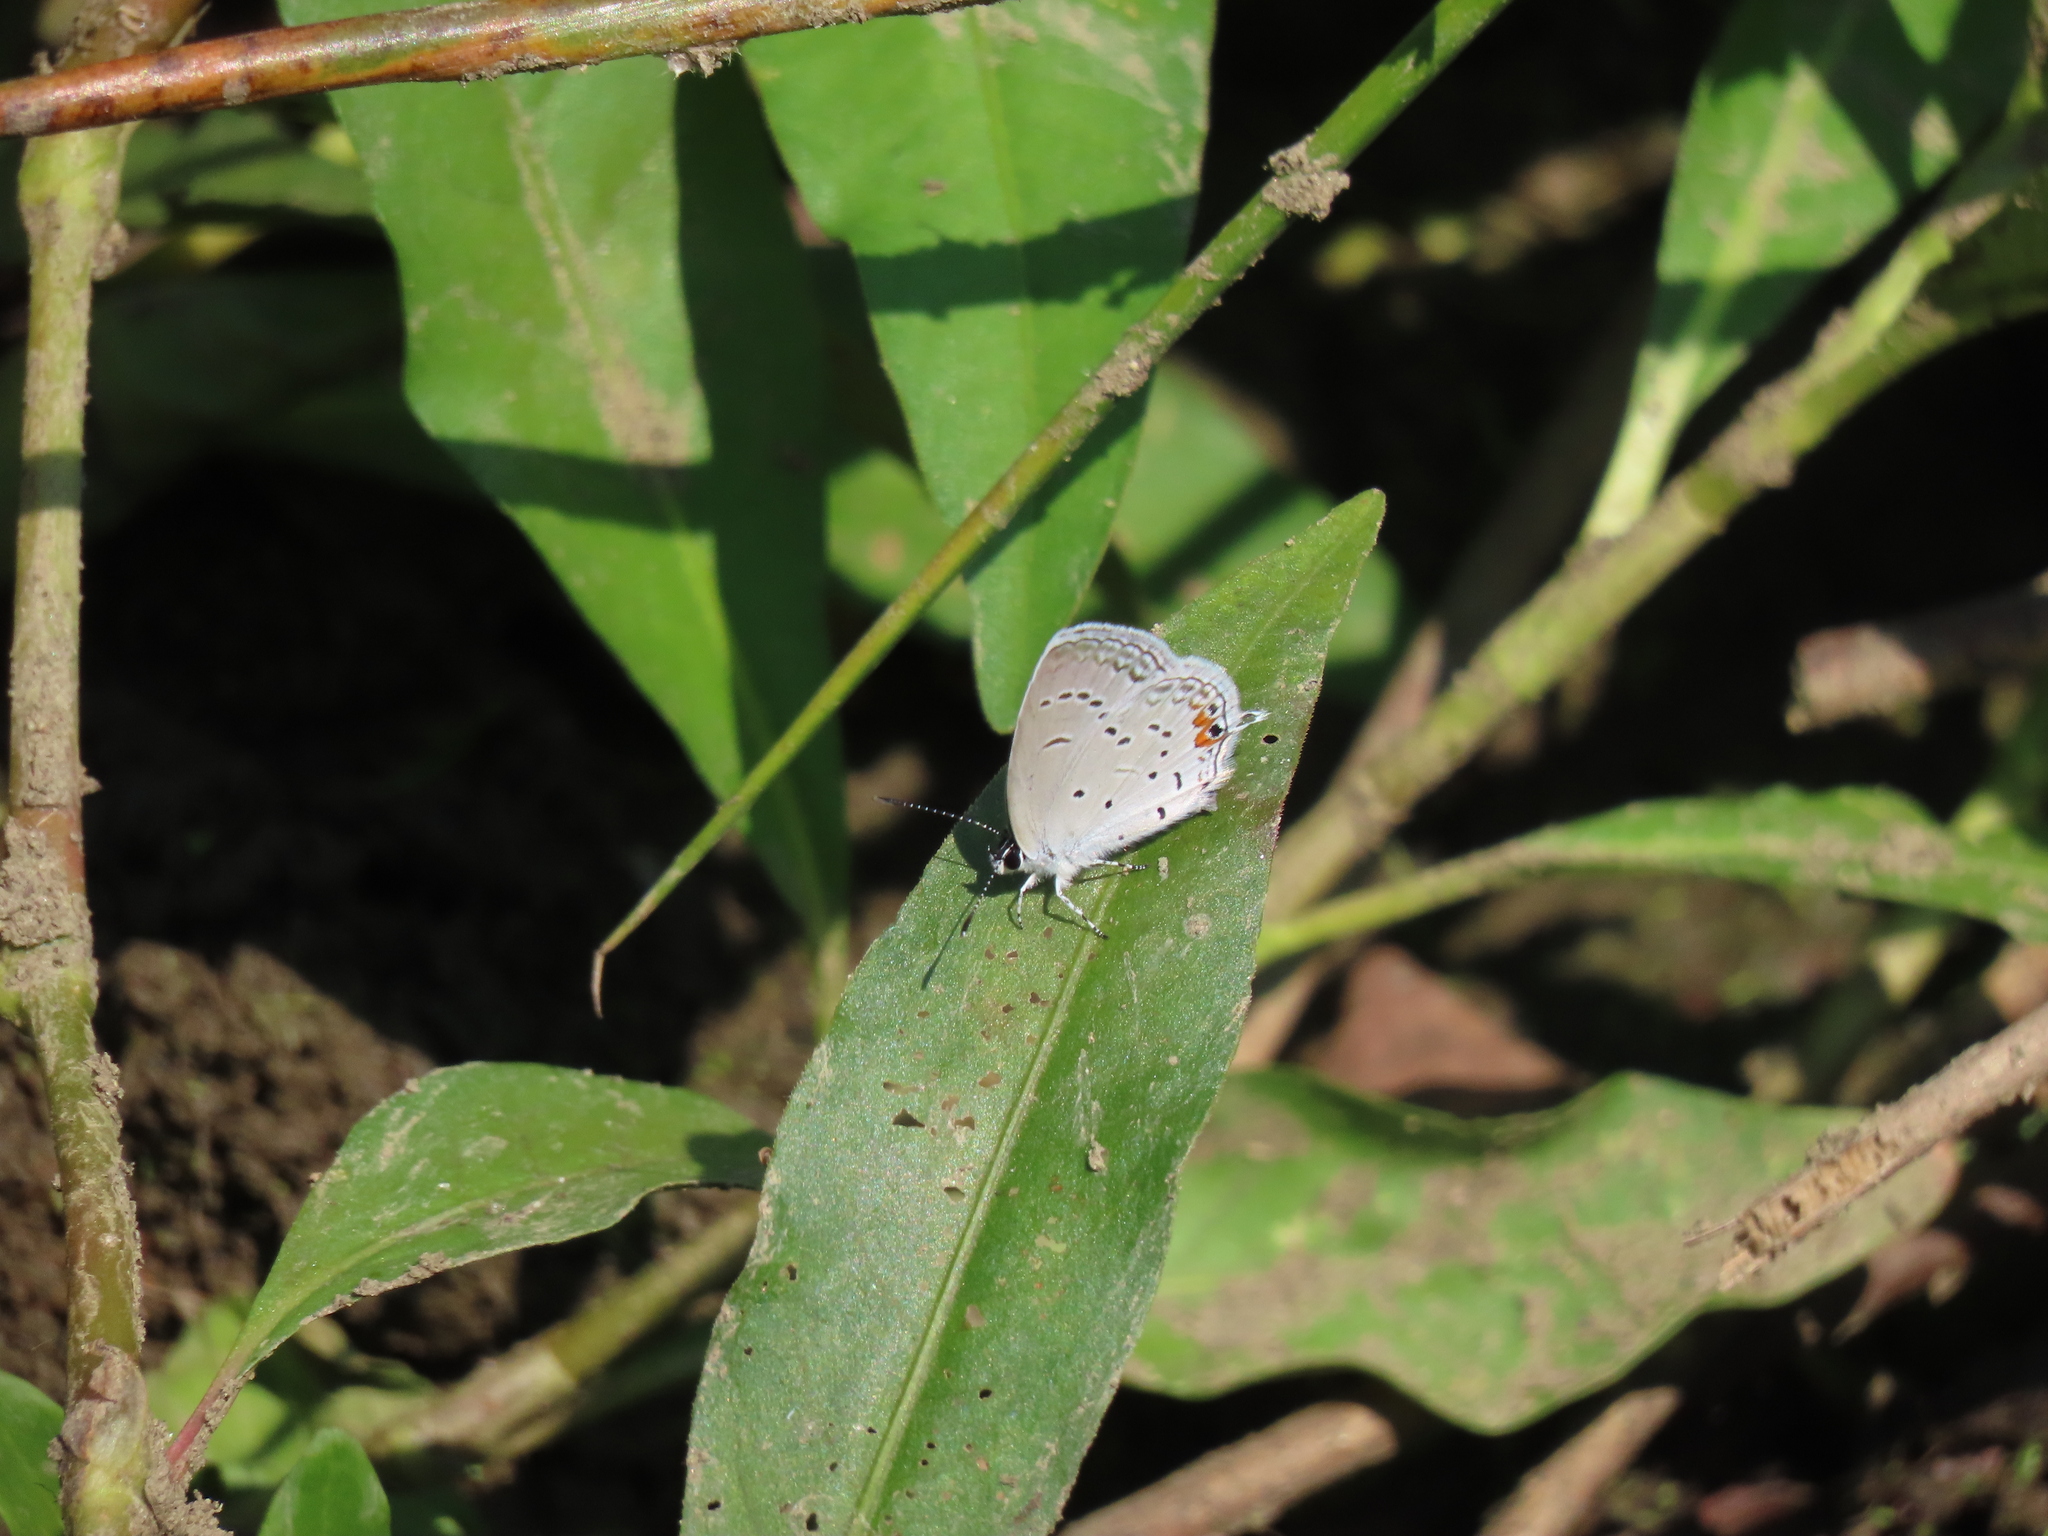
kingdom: Animalia
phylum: Arthropoda
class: Insecta
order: Lepidoptera
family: Lycaenidae
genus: Elkalyce
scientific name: Elkalyce comyntas
